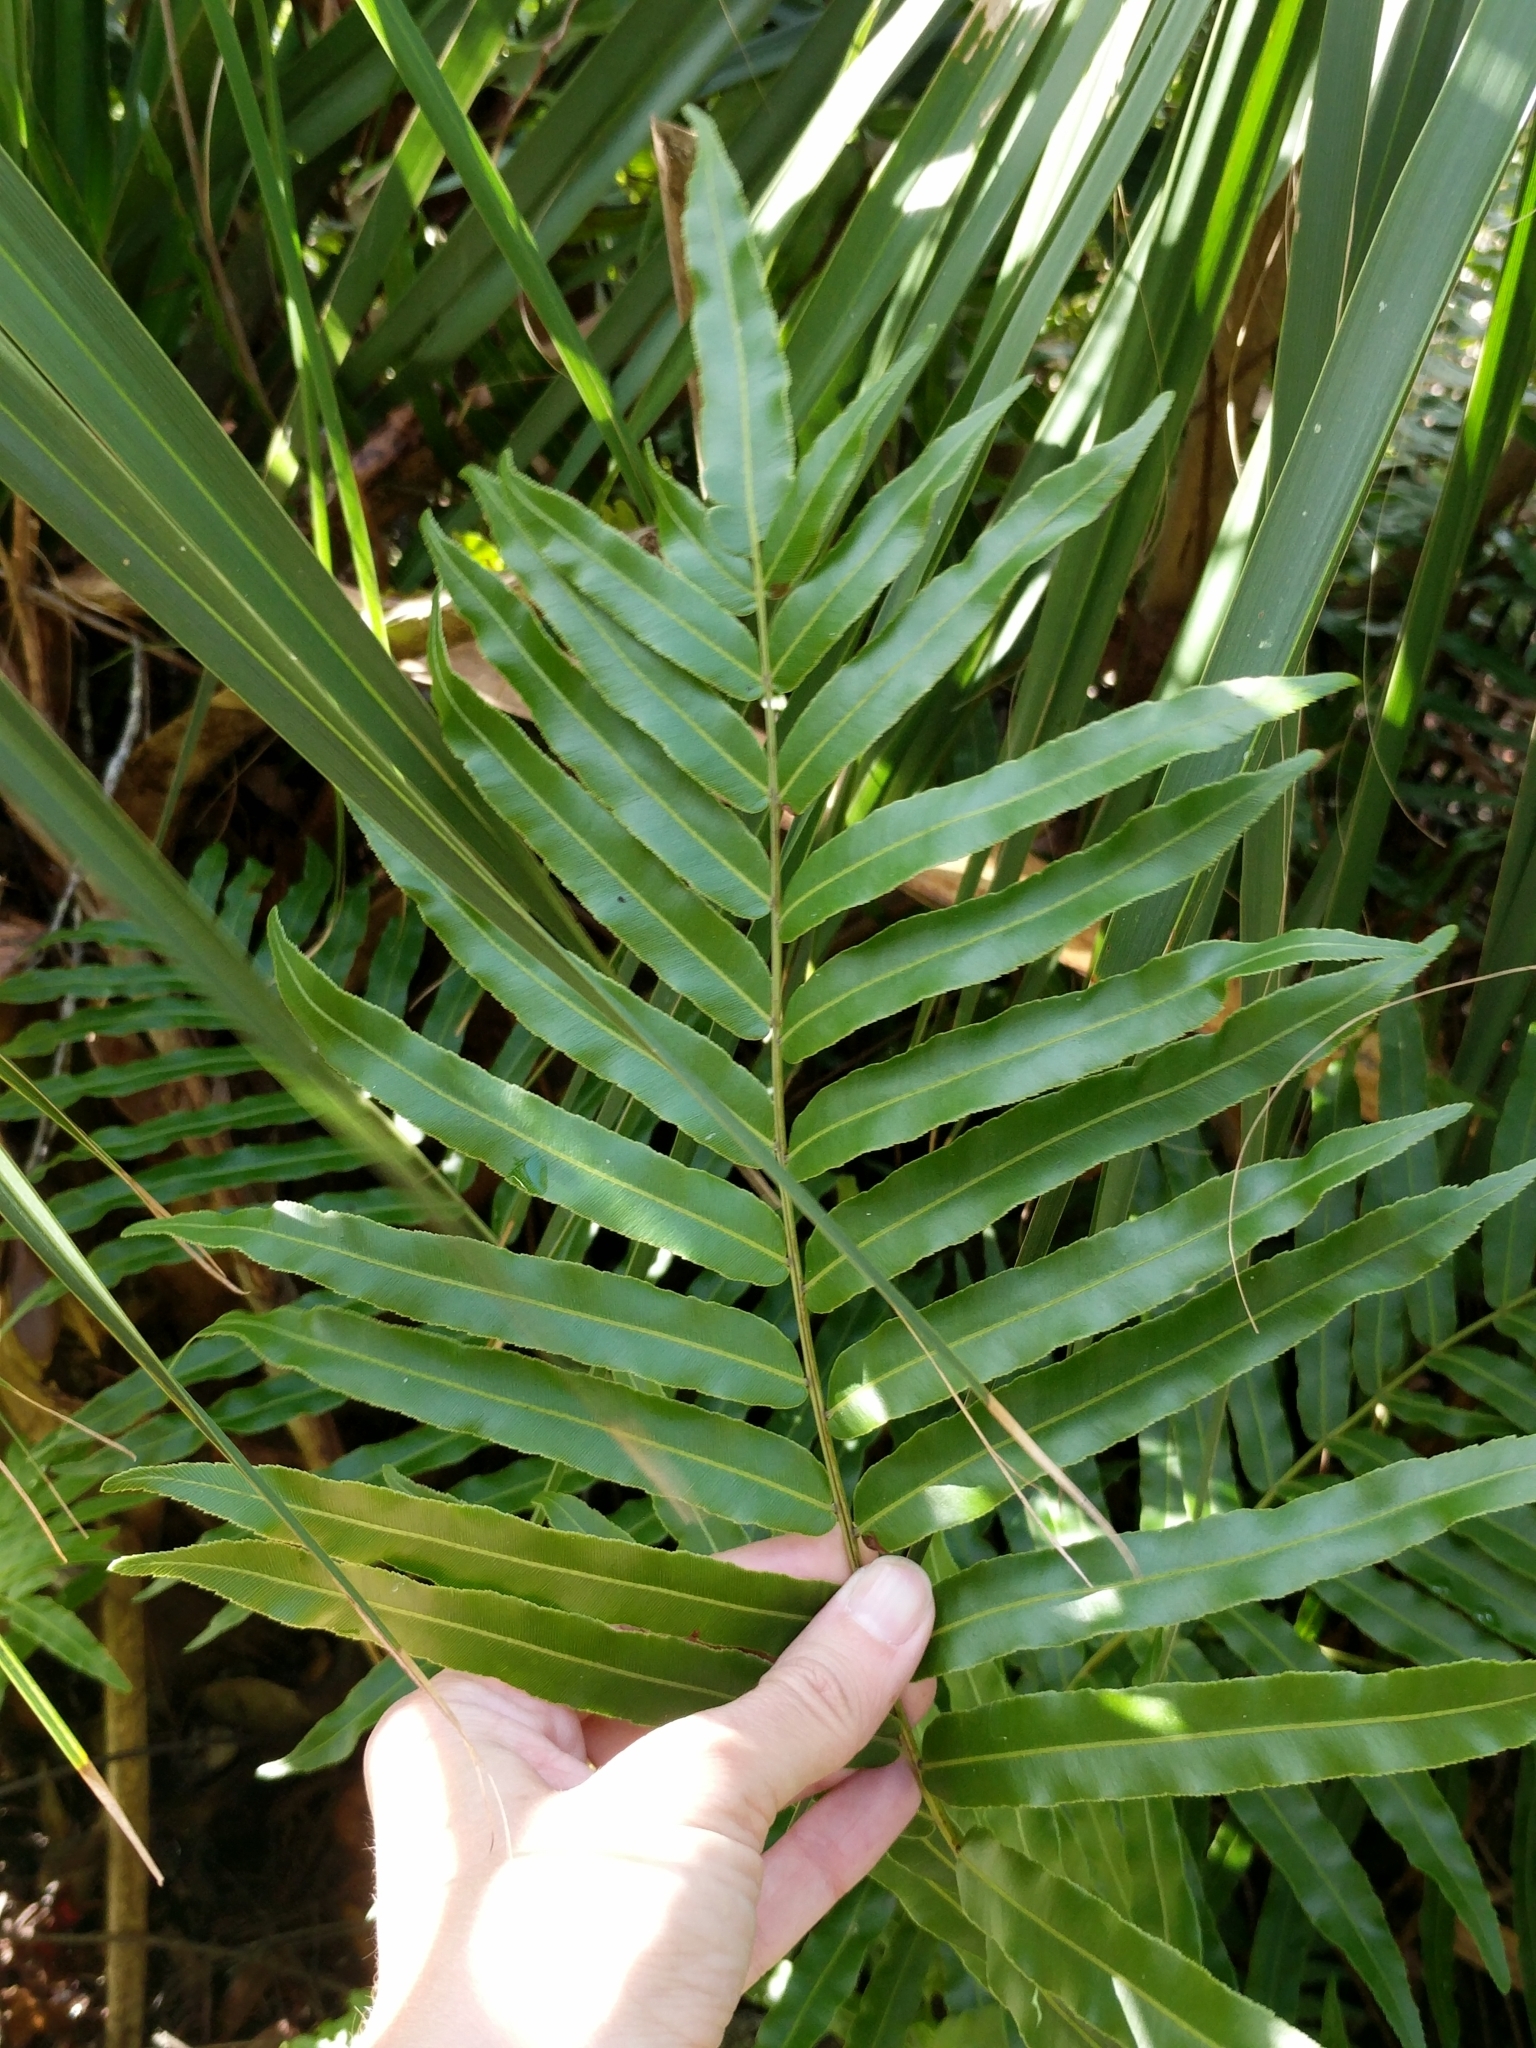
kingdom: Plantae
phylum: Tracheophyta
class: Polypodiopsida
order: Polypodiales
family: Blechnaceae
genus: Telmatoblechnum
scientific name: Telmatoblechnum serrulatum
